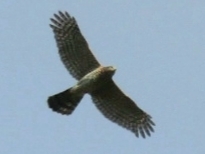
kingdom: Animalia
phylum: Chordata
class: Aves
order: Accipitriformes
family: Accipitridae
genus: Accipiter
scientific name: Accipiter cooperii
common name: Cooper's hawk
